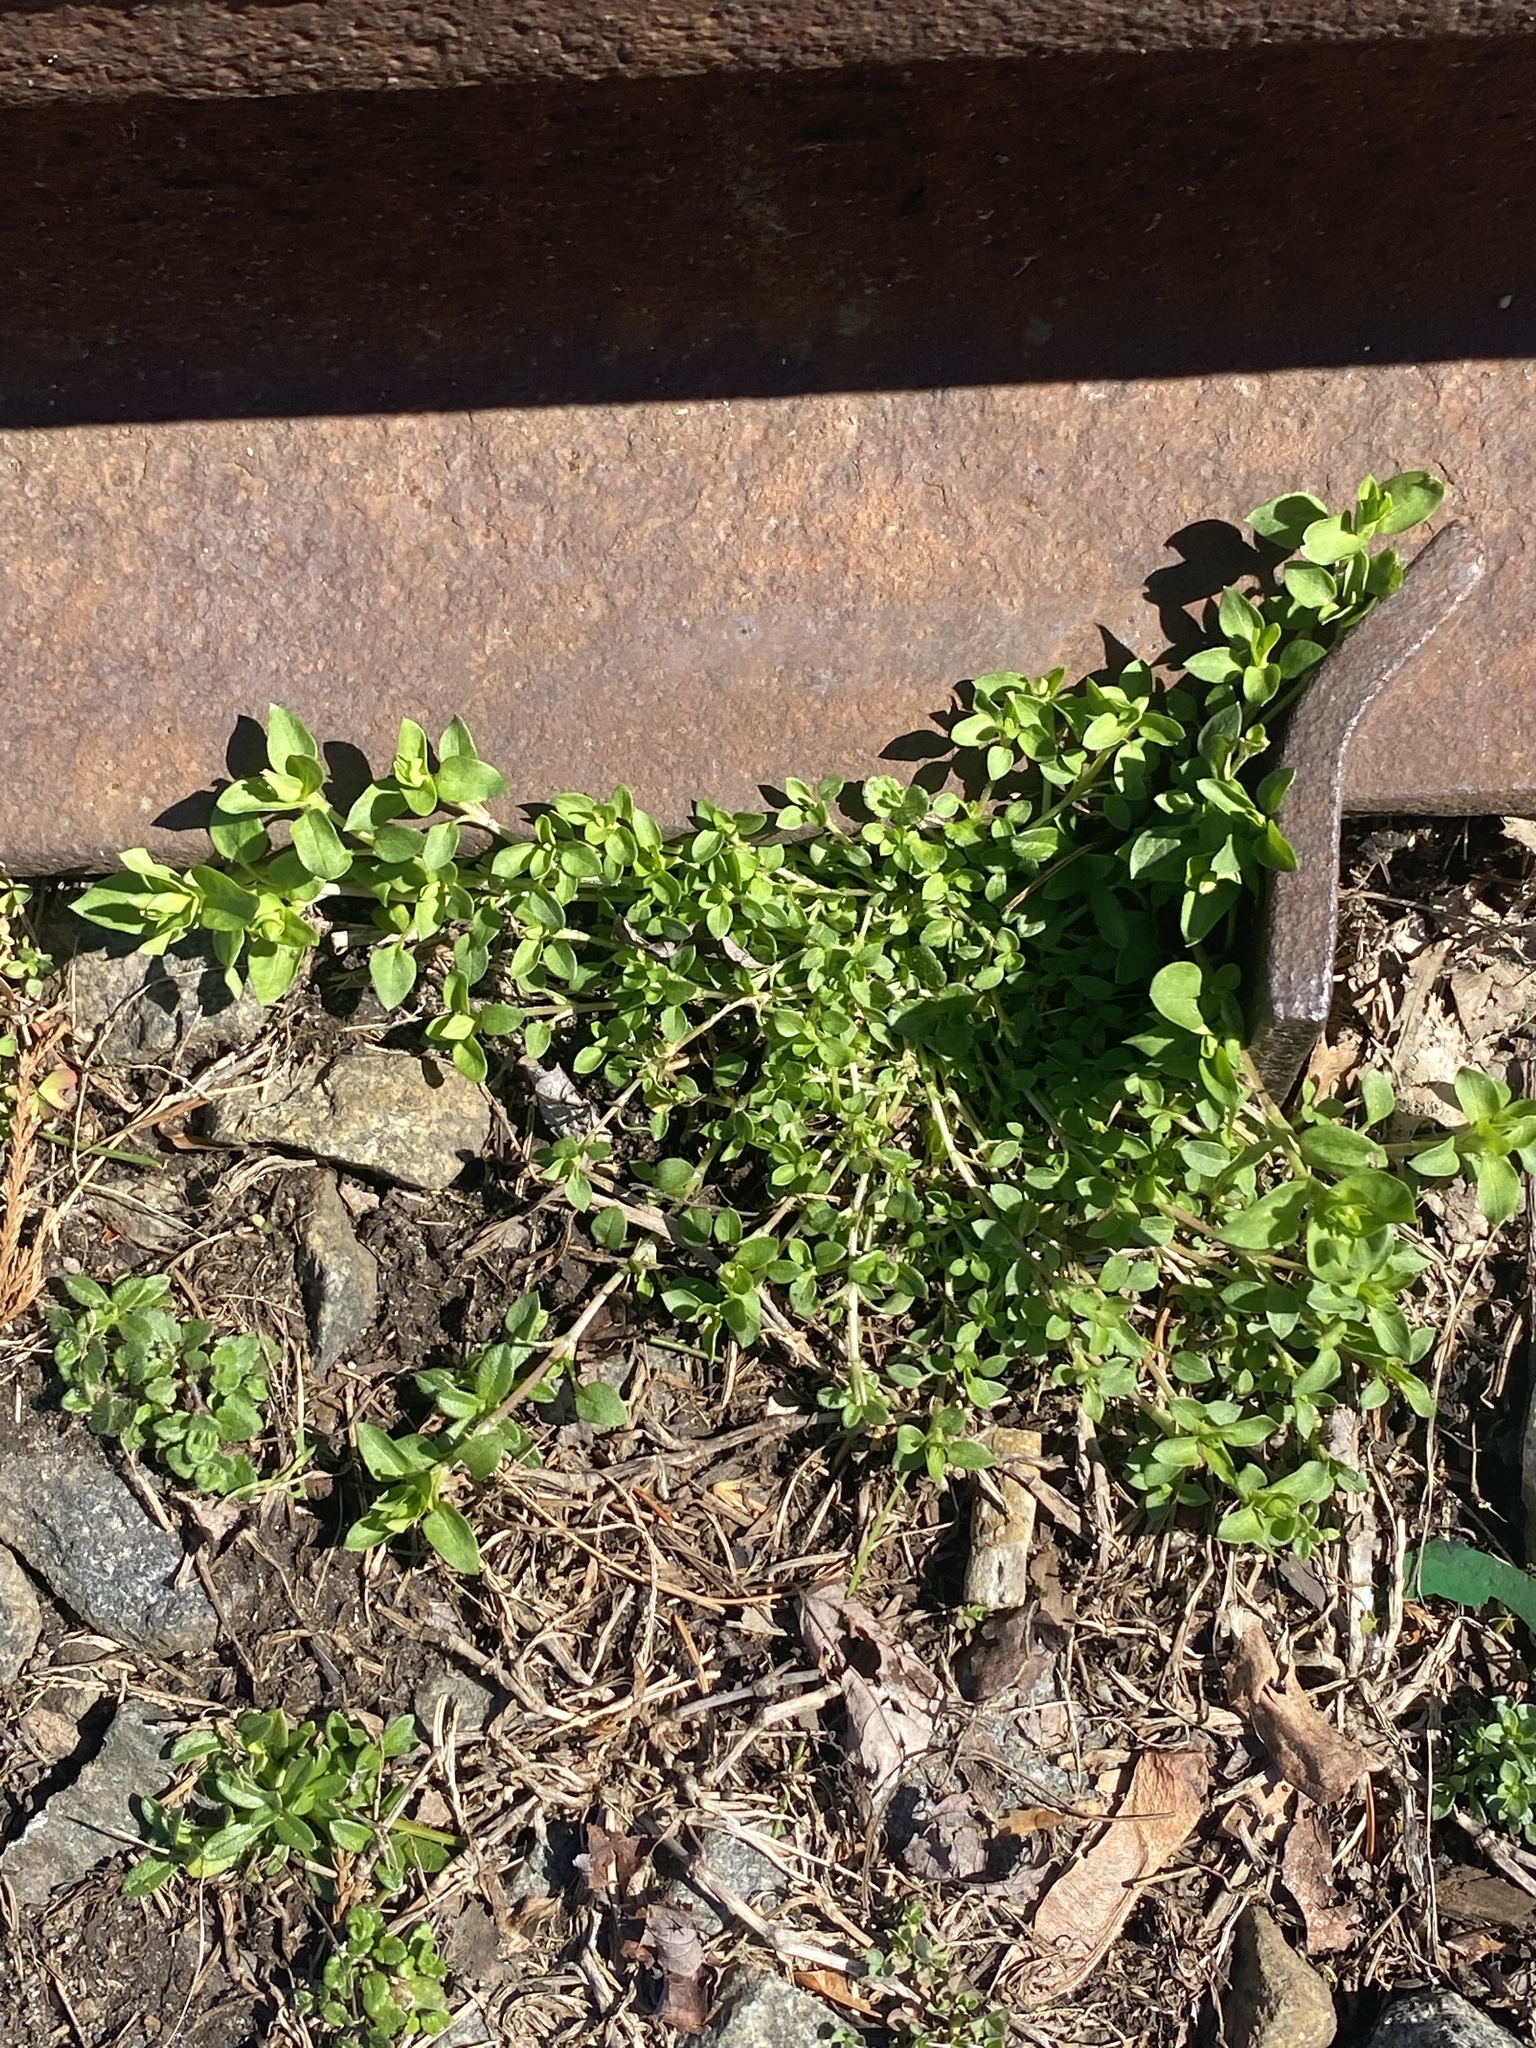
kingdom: Plantae
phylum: Tracheophyta
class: Magnoliopsida
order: Caryophyllales
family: Caryophyllaceae
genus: Stellaria
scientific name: Stellaria media
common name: Common chickweed
